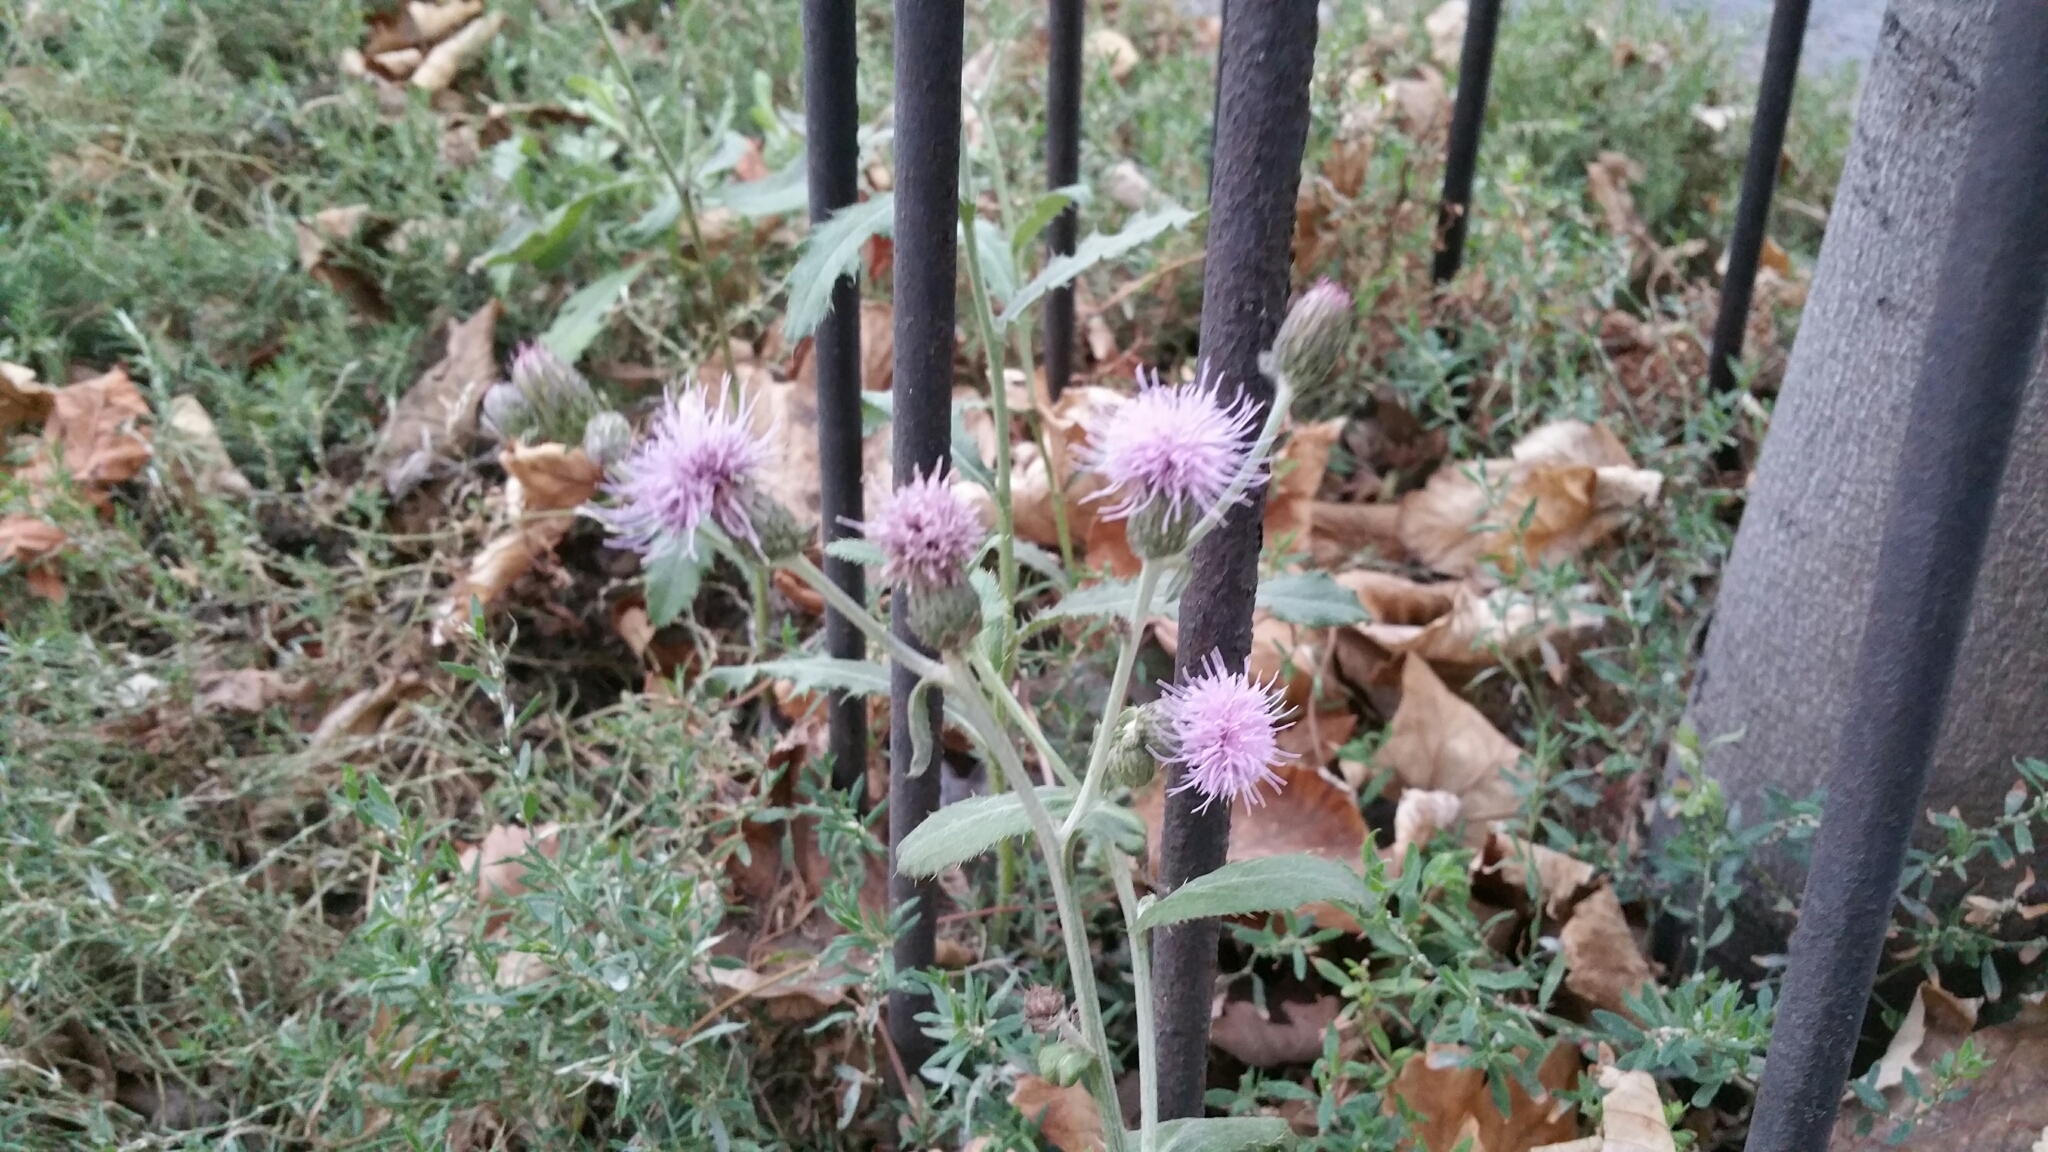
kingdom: Plantae
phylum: Tracheophyta
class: Magnoliopsida
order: Asterales
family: Asteraceae
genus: Cirsium
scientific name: Cirsium arvense
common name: Creeping thistle
